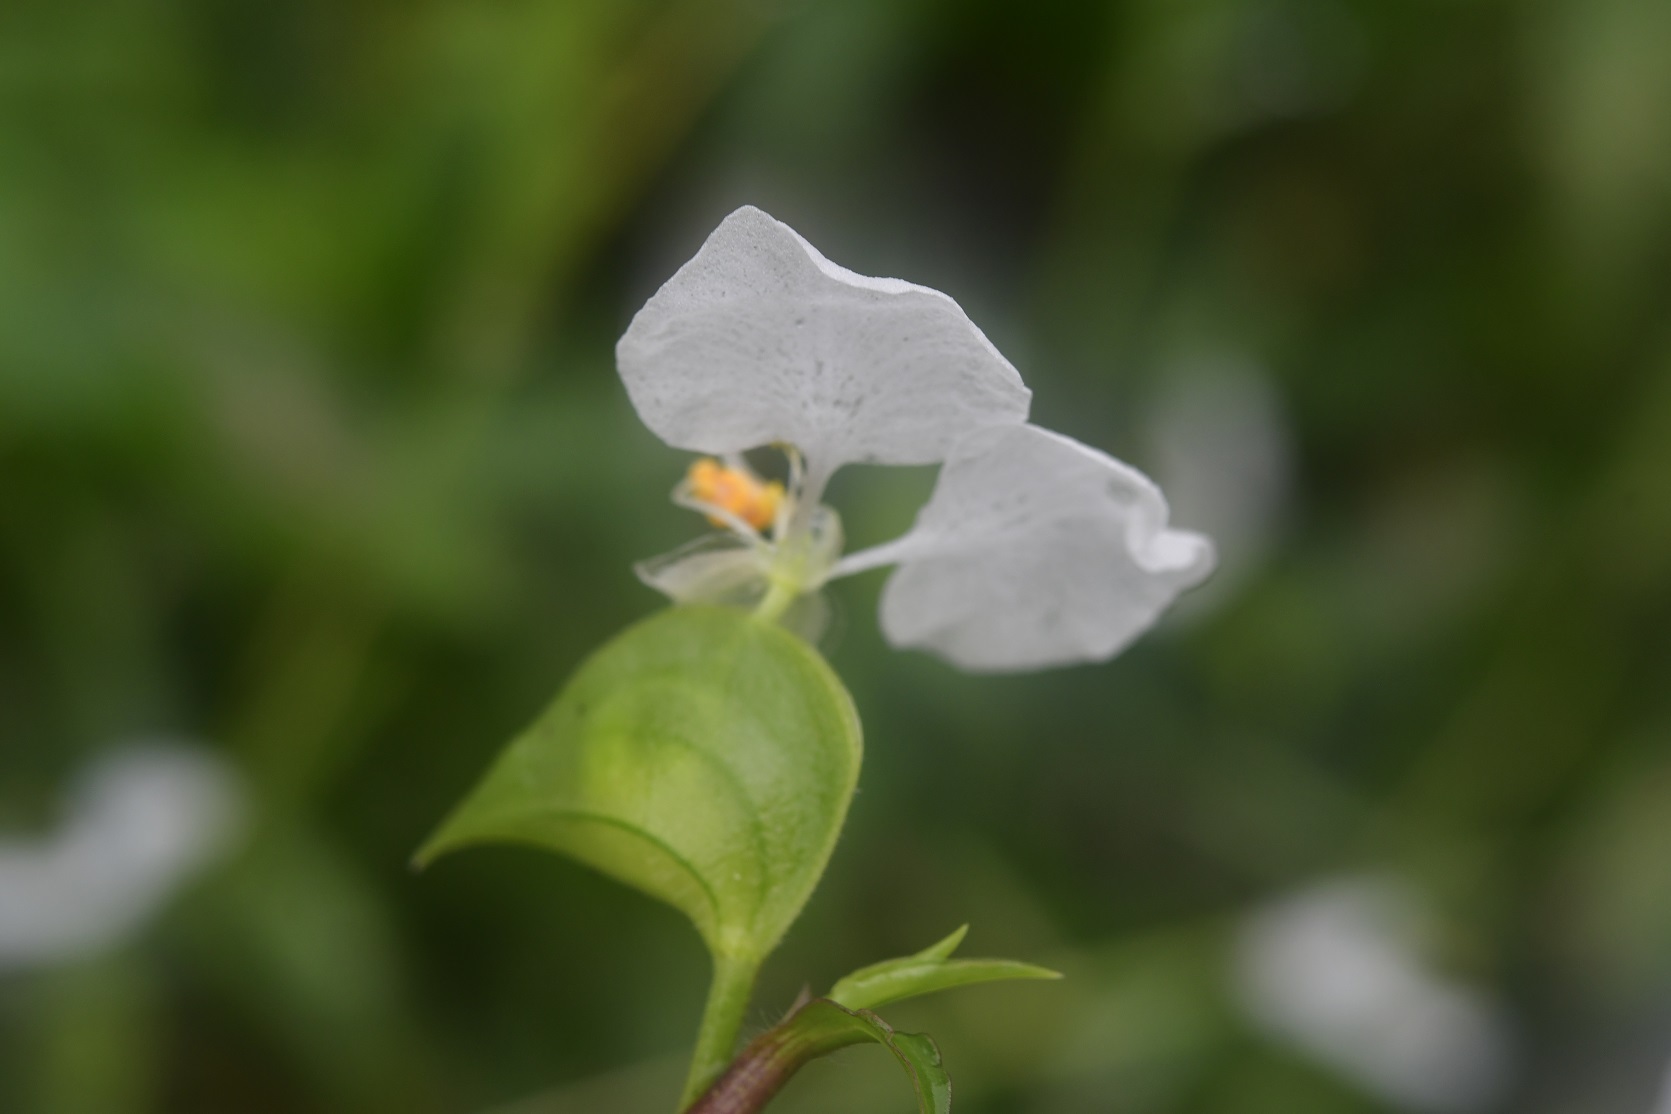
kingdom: Plantae
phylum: Tracheophyta
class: Liliopsida
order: Commelinales
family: Commelinaceae
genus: Commelina
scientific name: Commelina erecta
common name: Blousel blommetjie
